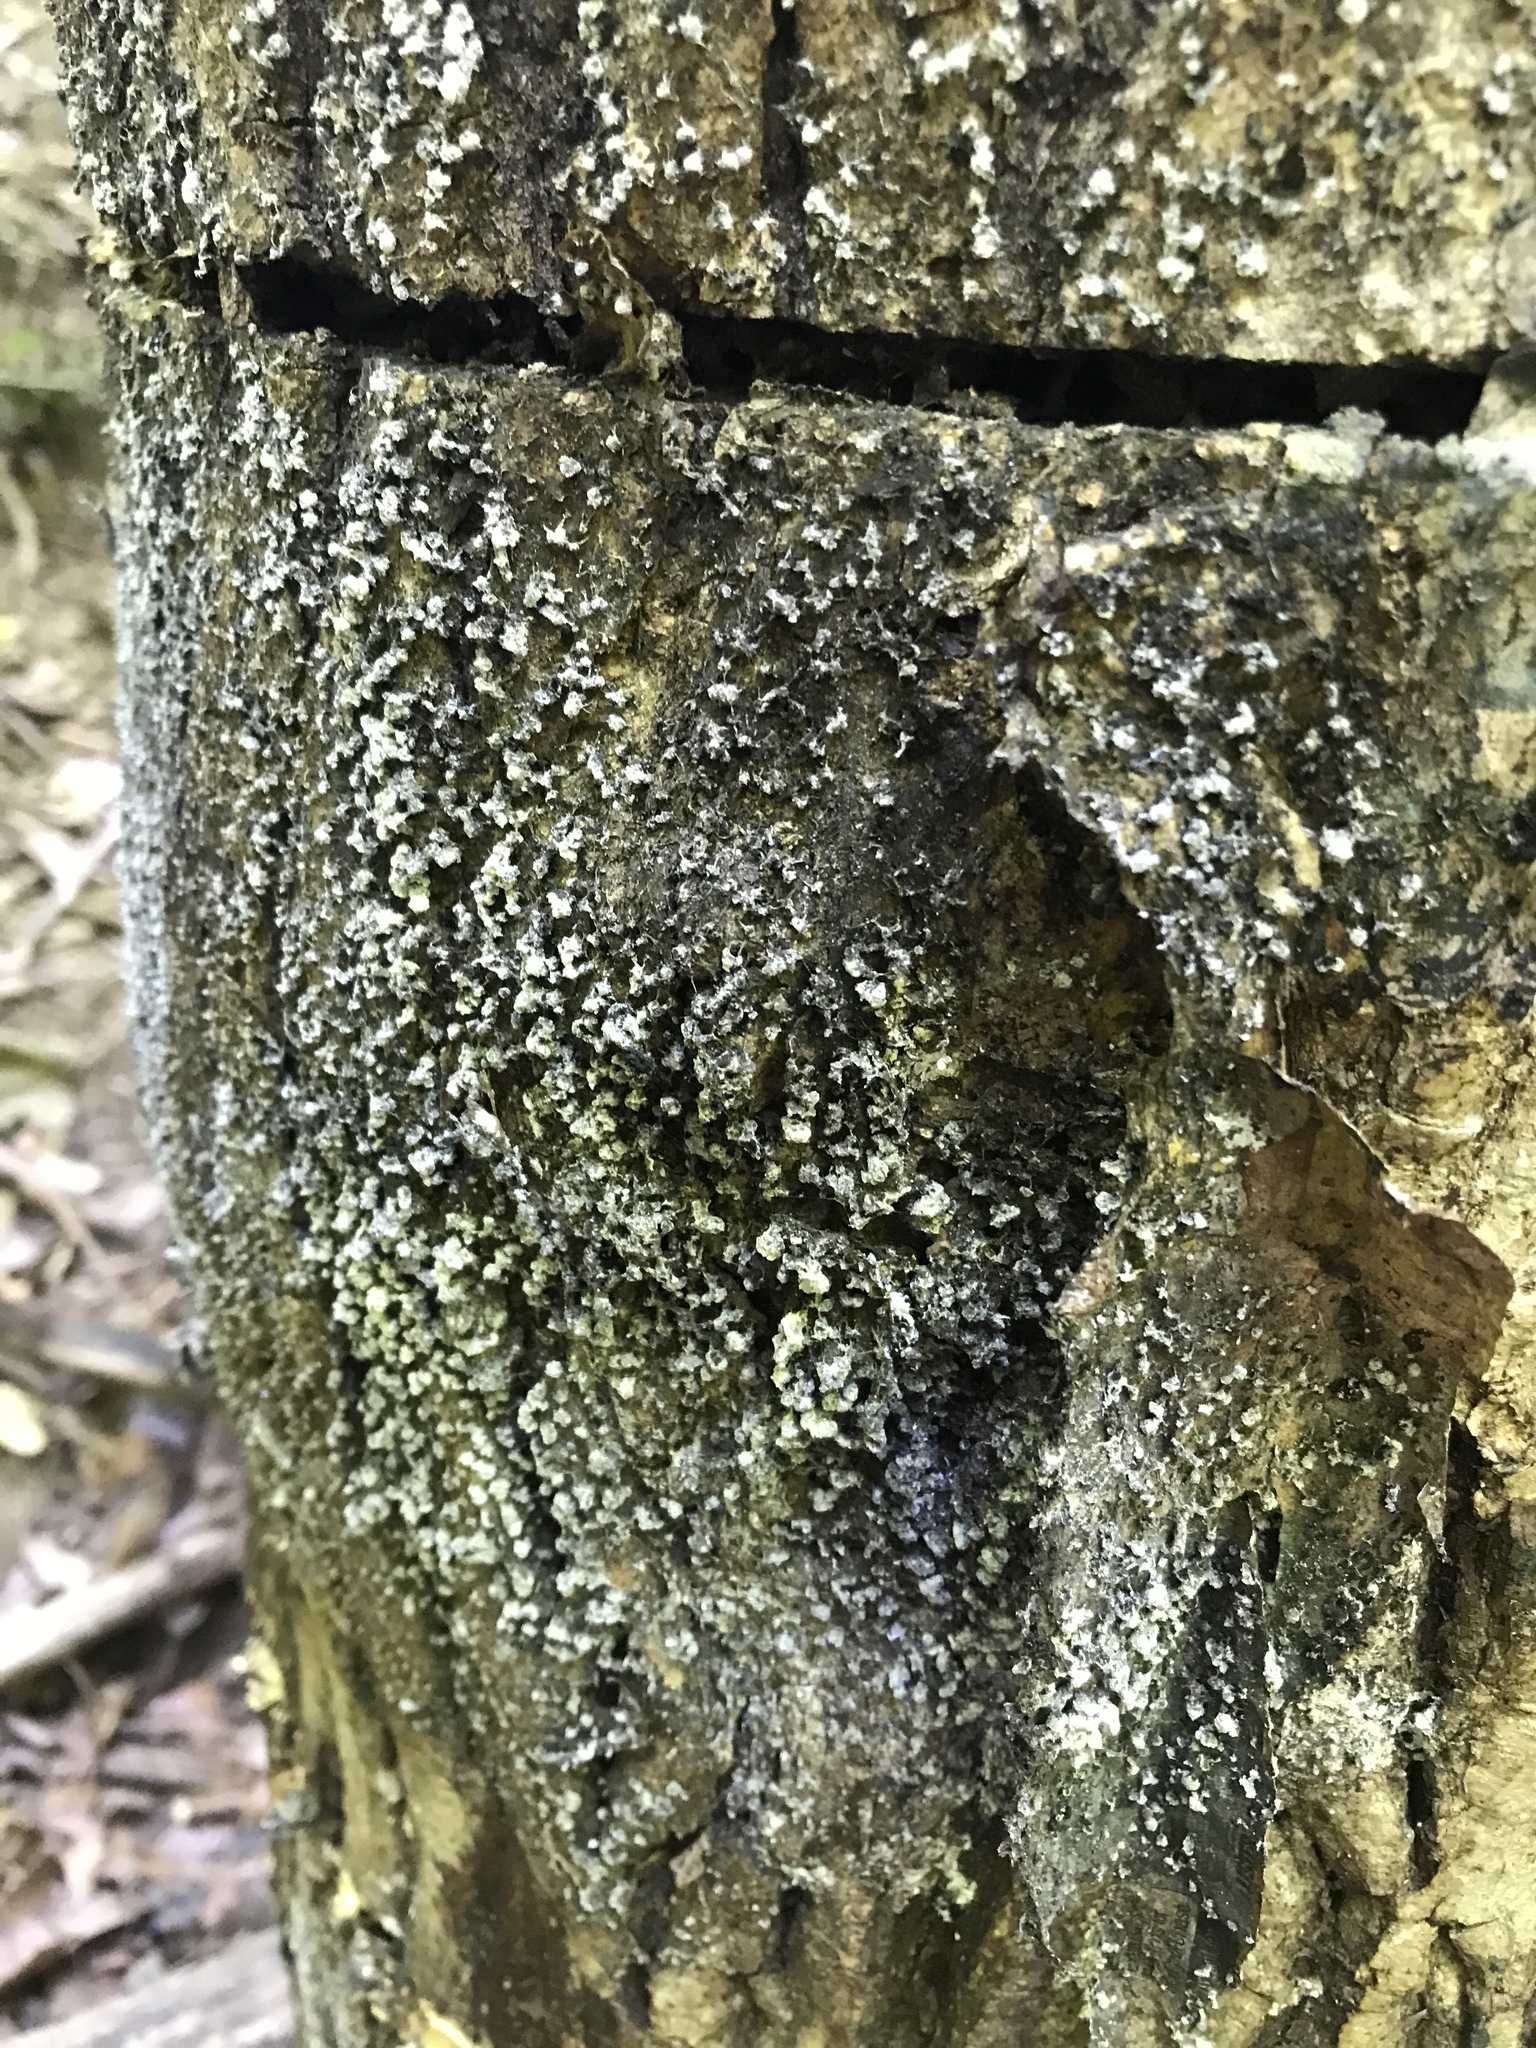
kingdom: Protozoa
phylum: Mycetozoa
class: Myxomycetes
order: Physarales
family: Physaraceae
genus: Physarum
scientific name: Physarum polycephalum
